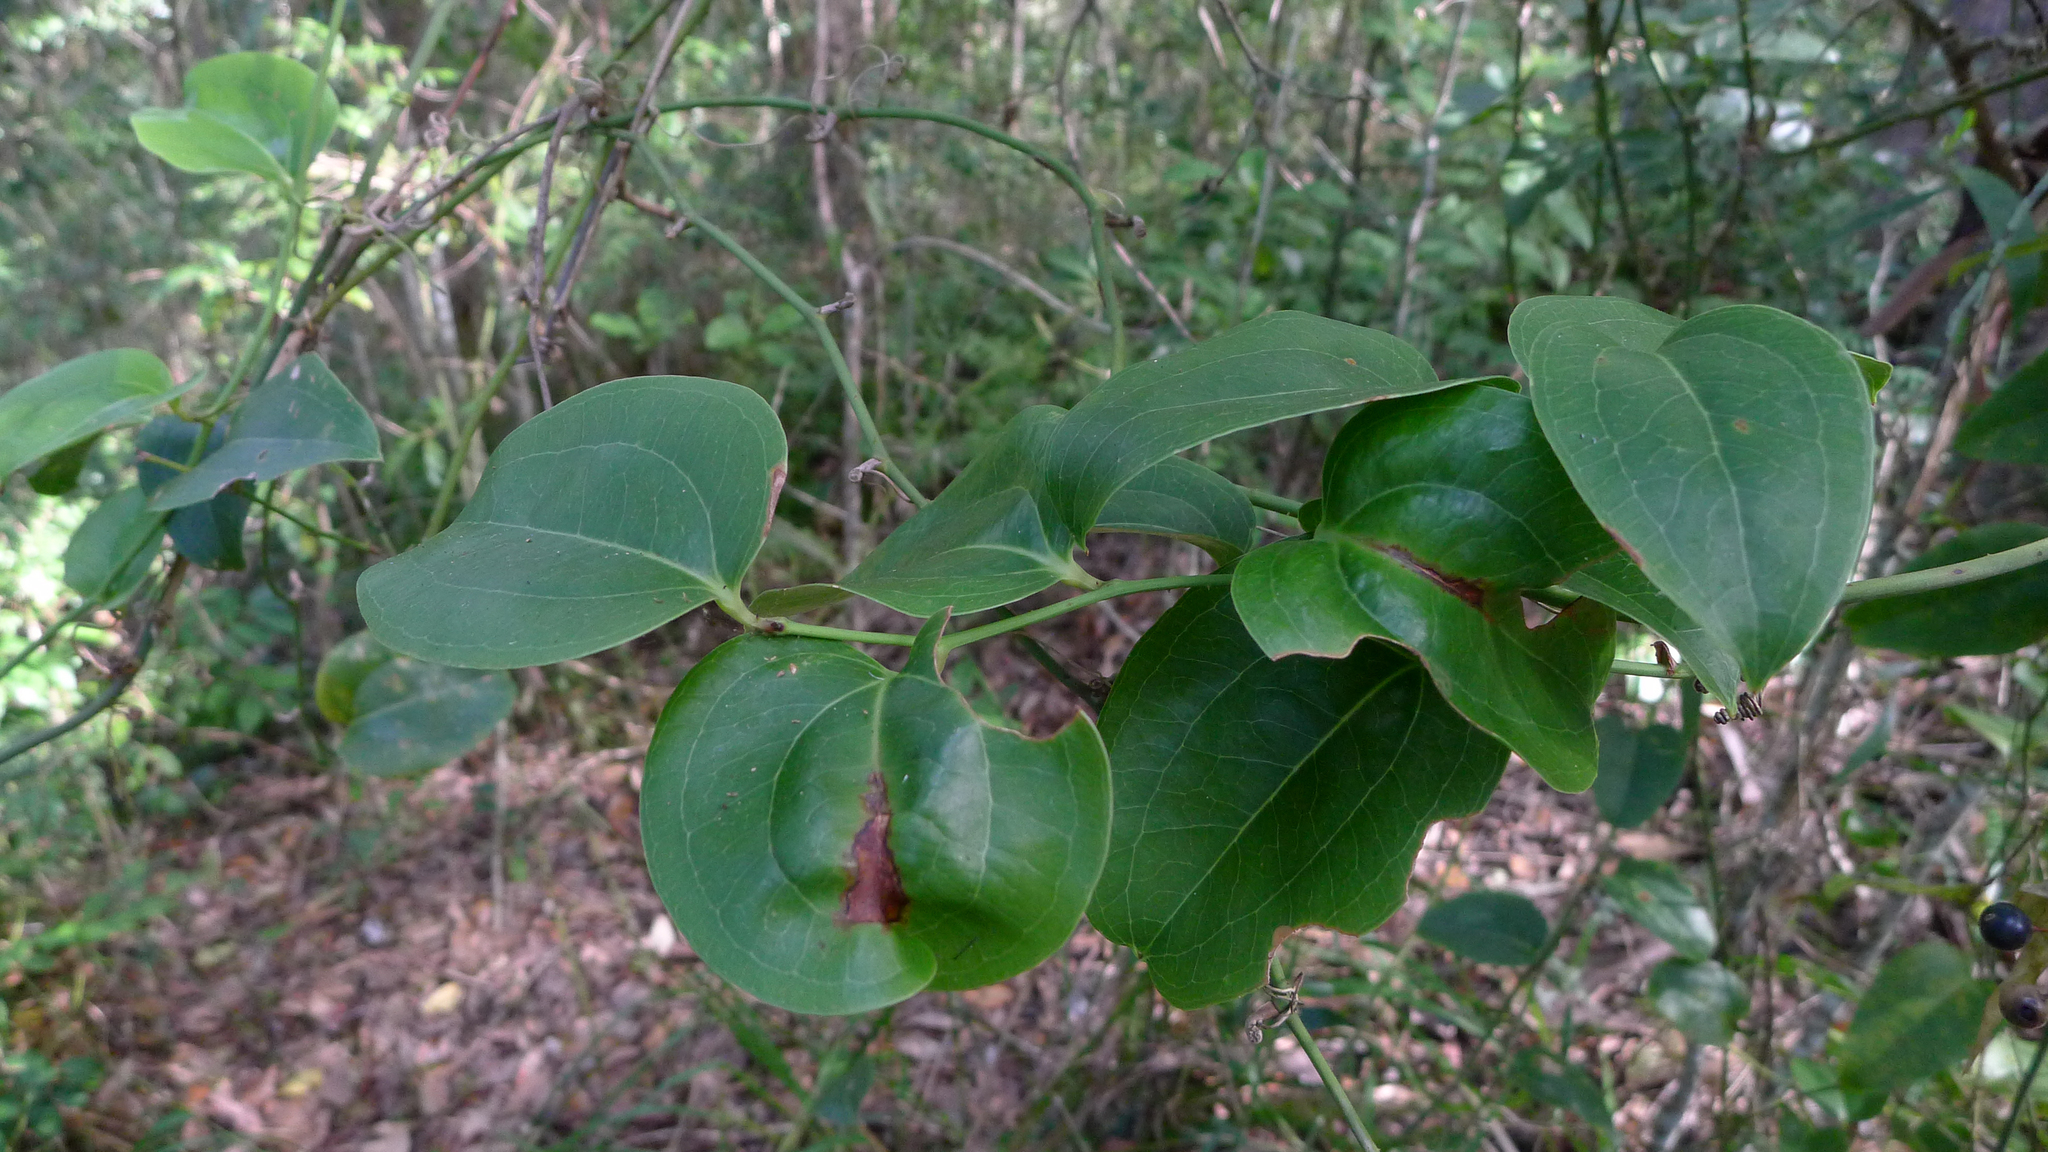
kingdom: Plantae
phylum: Tracheophyta
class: Liliopsida
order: Liliales
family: Smilacaceae
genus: Smilax
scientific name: Smilax australis
